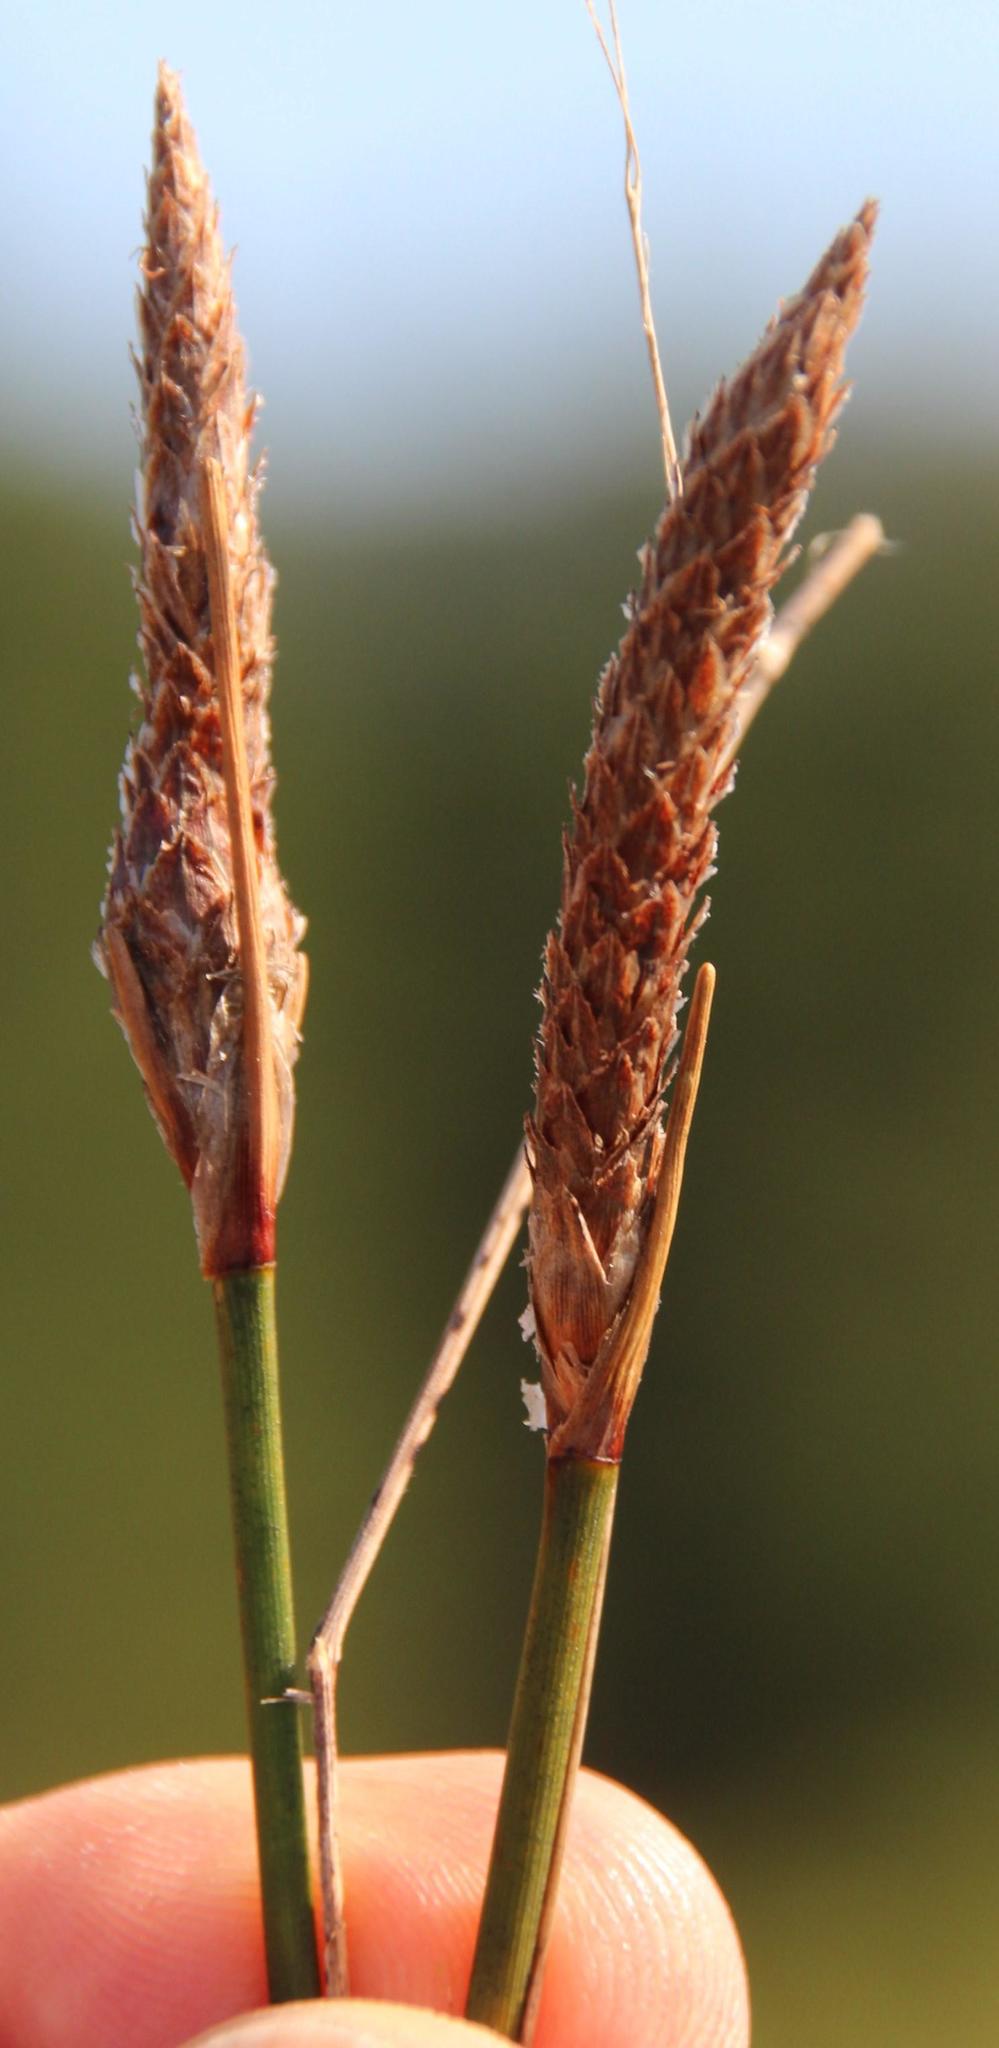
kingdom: Plantae
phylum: Tracheophyta
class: Liliopsida
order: Poales
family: Cyperaceae
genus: Ficinia
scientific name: Ficinia deusta
